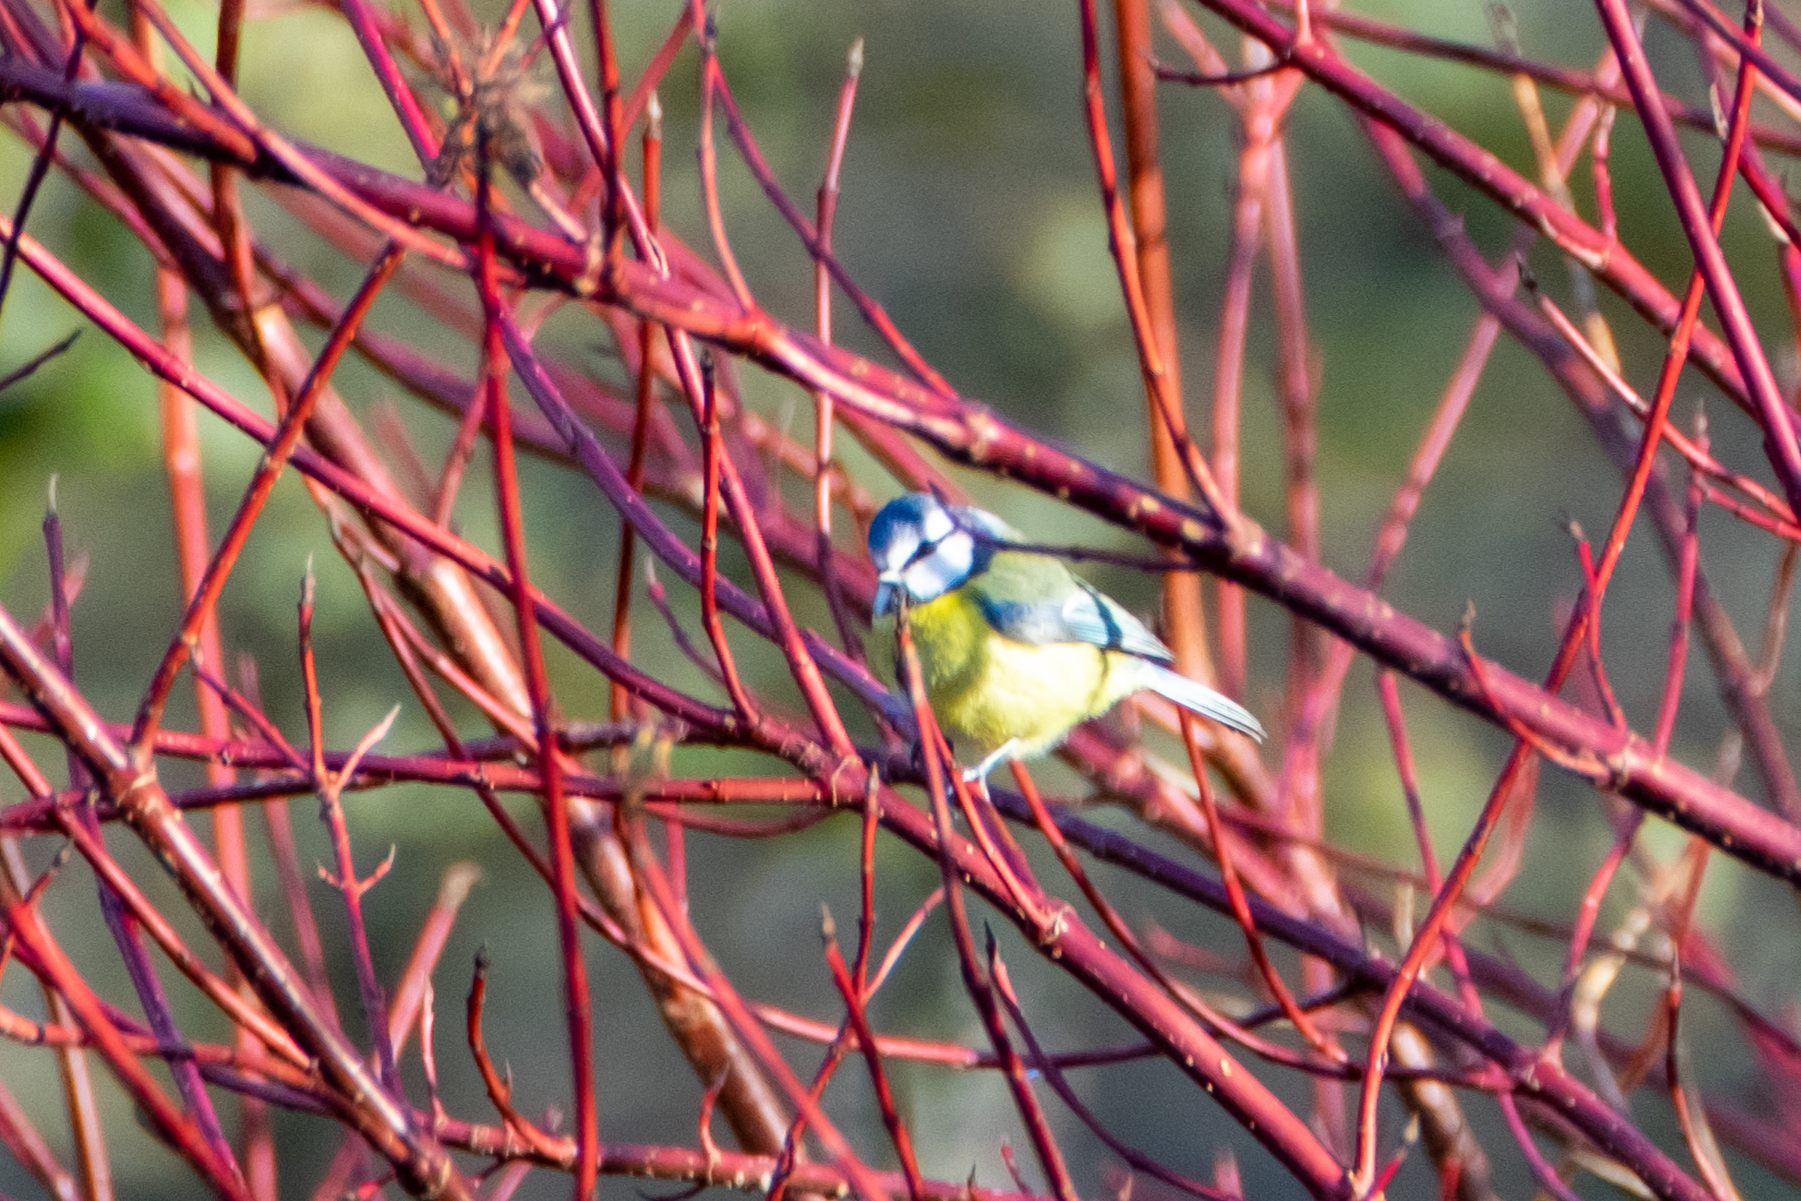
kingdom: Animalia
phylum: Chordata
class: Aves
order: Passeriformes
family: Paridae
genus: Cyanistes
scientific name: Cyanistes caeruleus
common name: Eurasian blue tit
